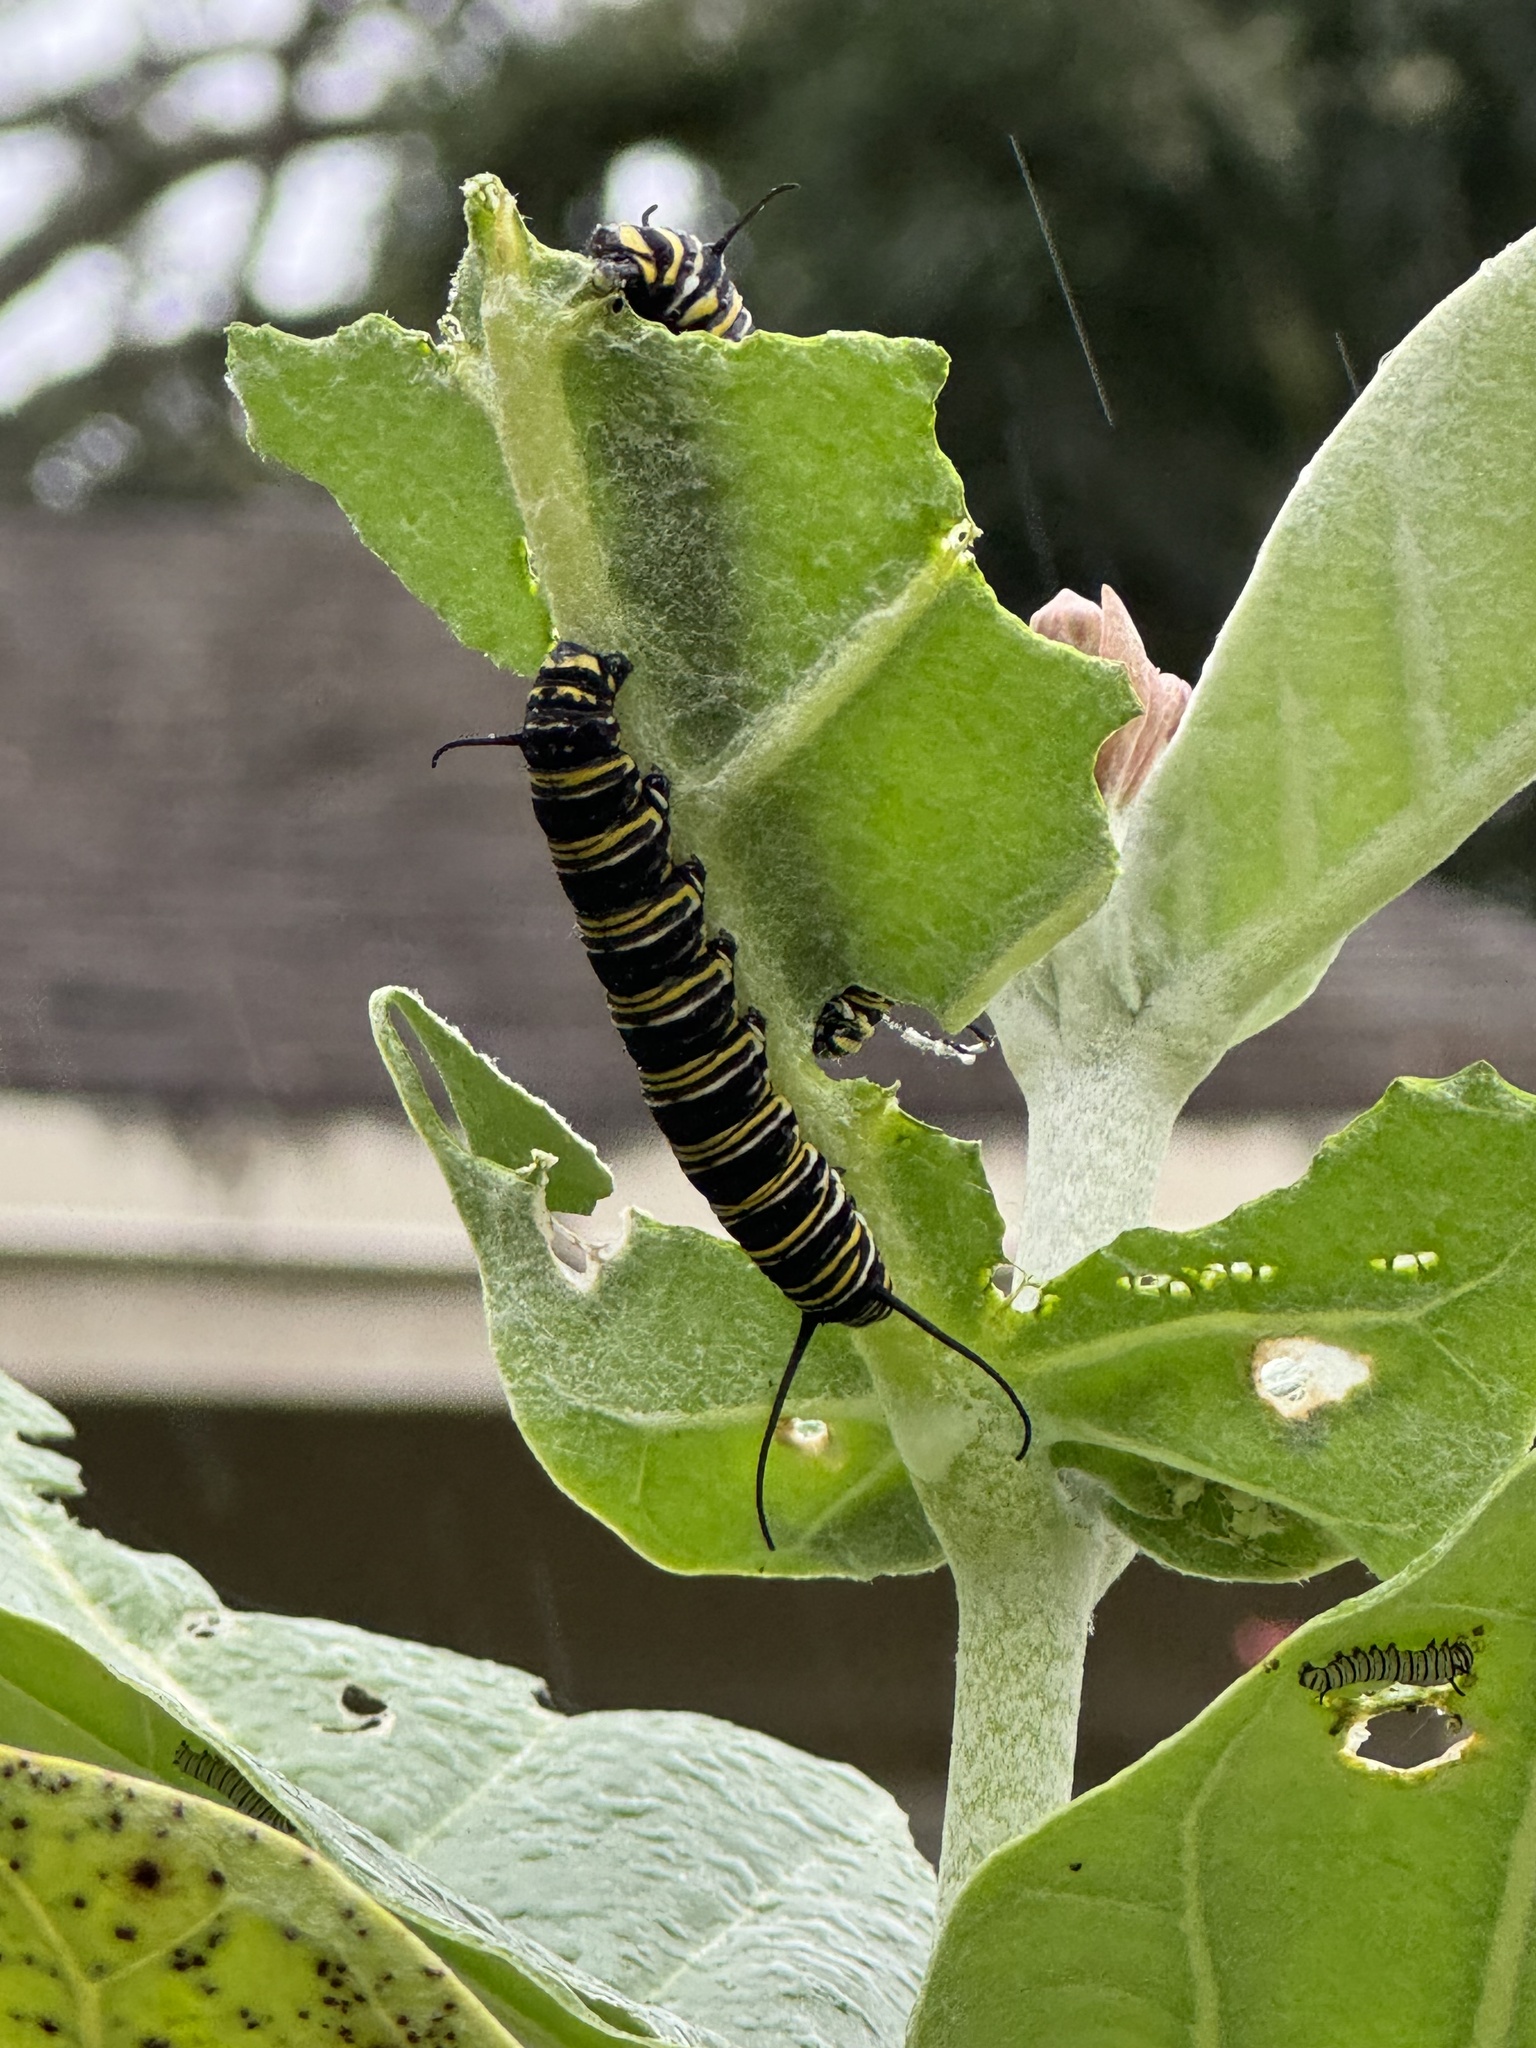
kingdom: Animalia
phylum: Arthropoda
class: Insecta
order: Lepidoptera
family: Nymphalidae
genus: Danaus
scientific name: Danaus plexippus
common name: Monarch
